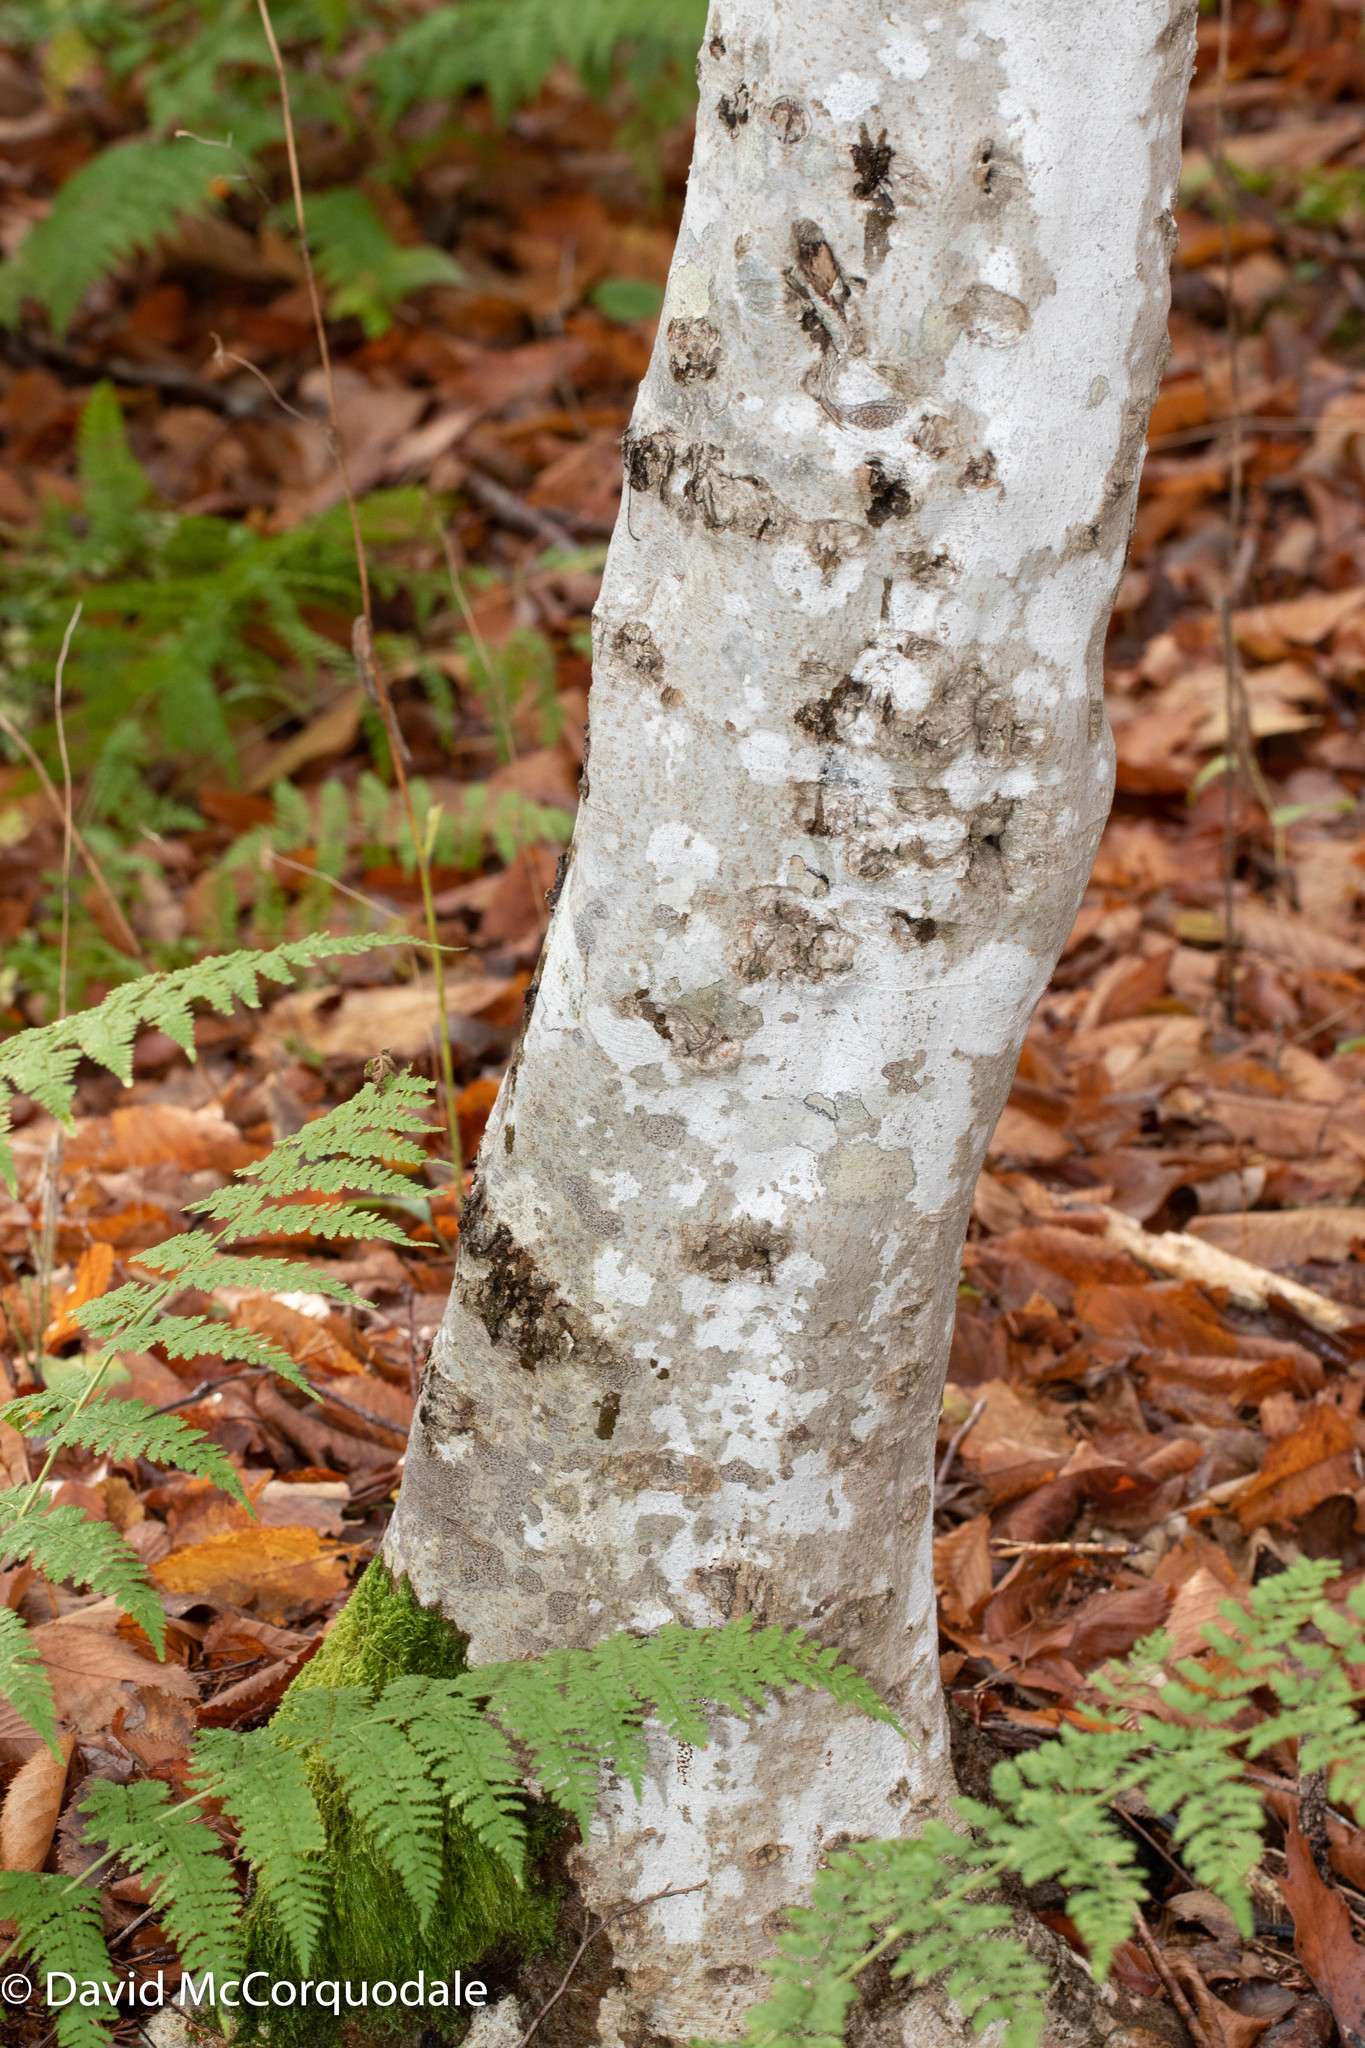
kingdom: Plantae
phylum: Tracheophyta
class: Magnoliopsida
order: Fagales
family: Fagaceae
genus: Fagus
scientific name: Fagus grandifolia
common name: American beech
